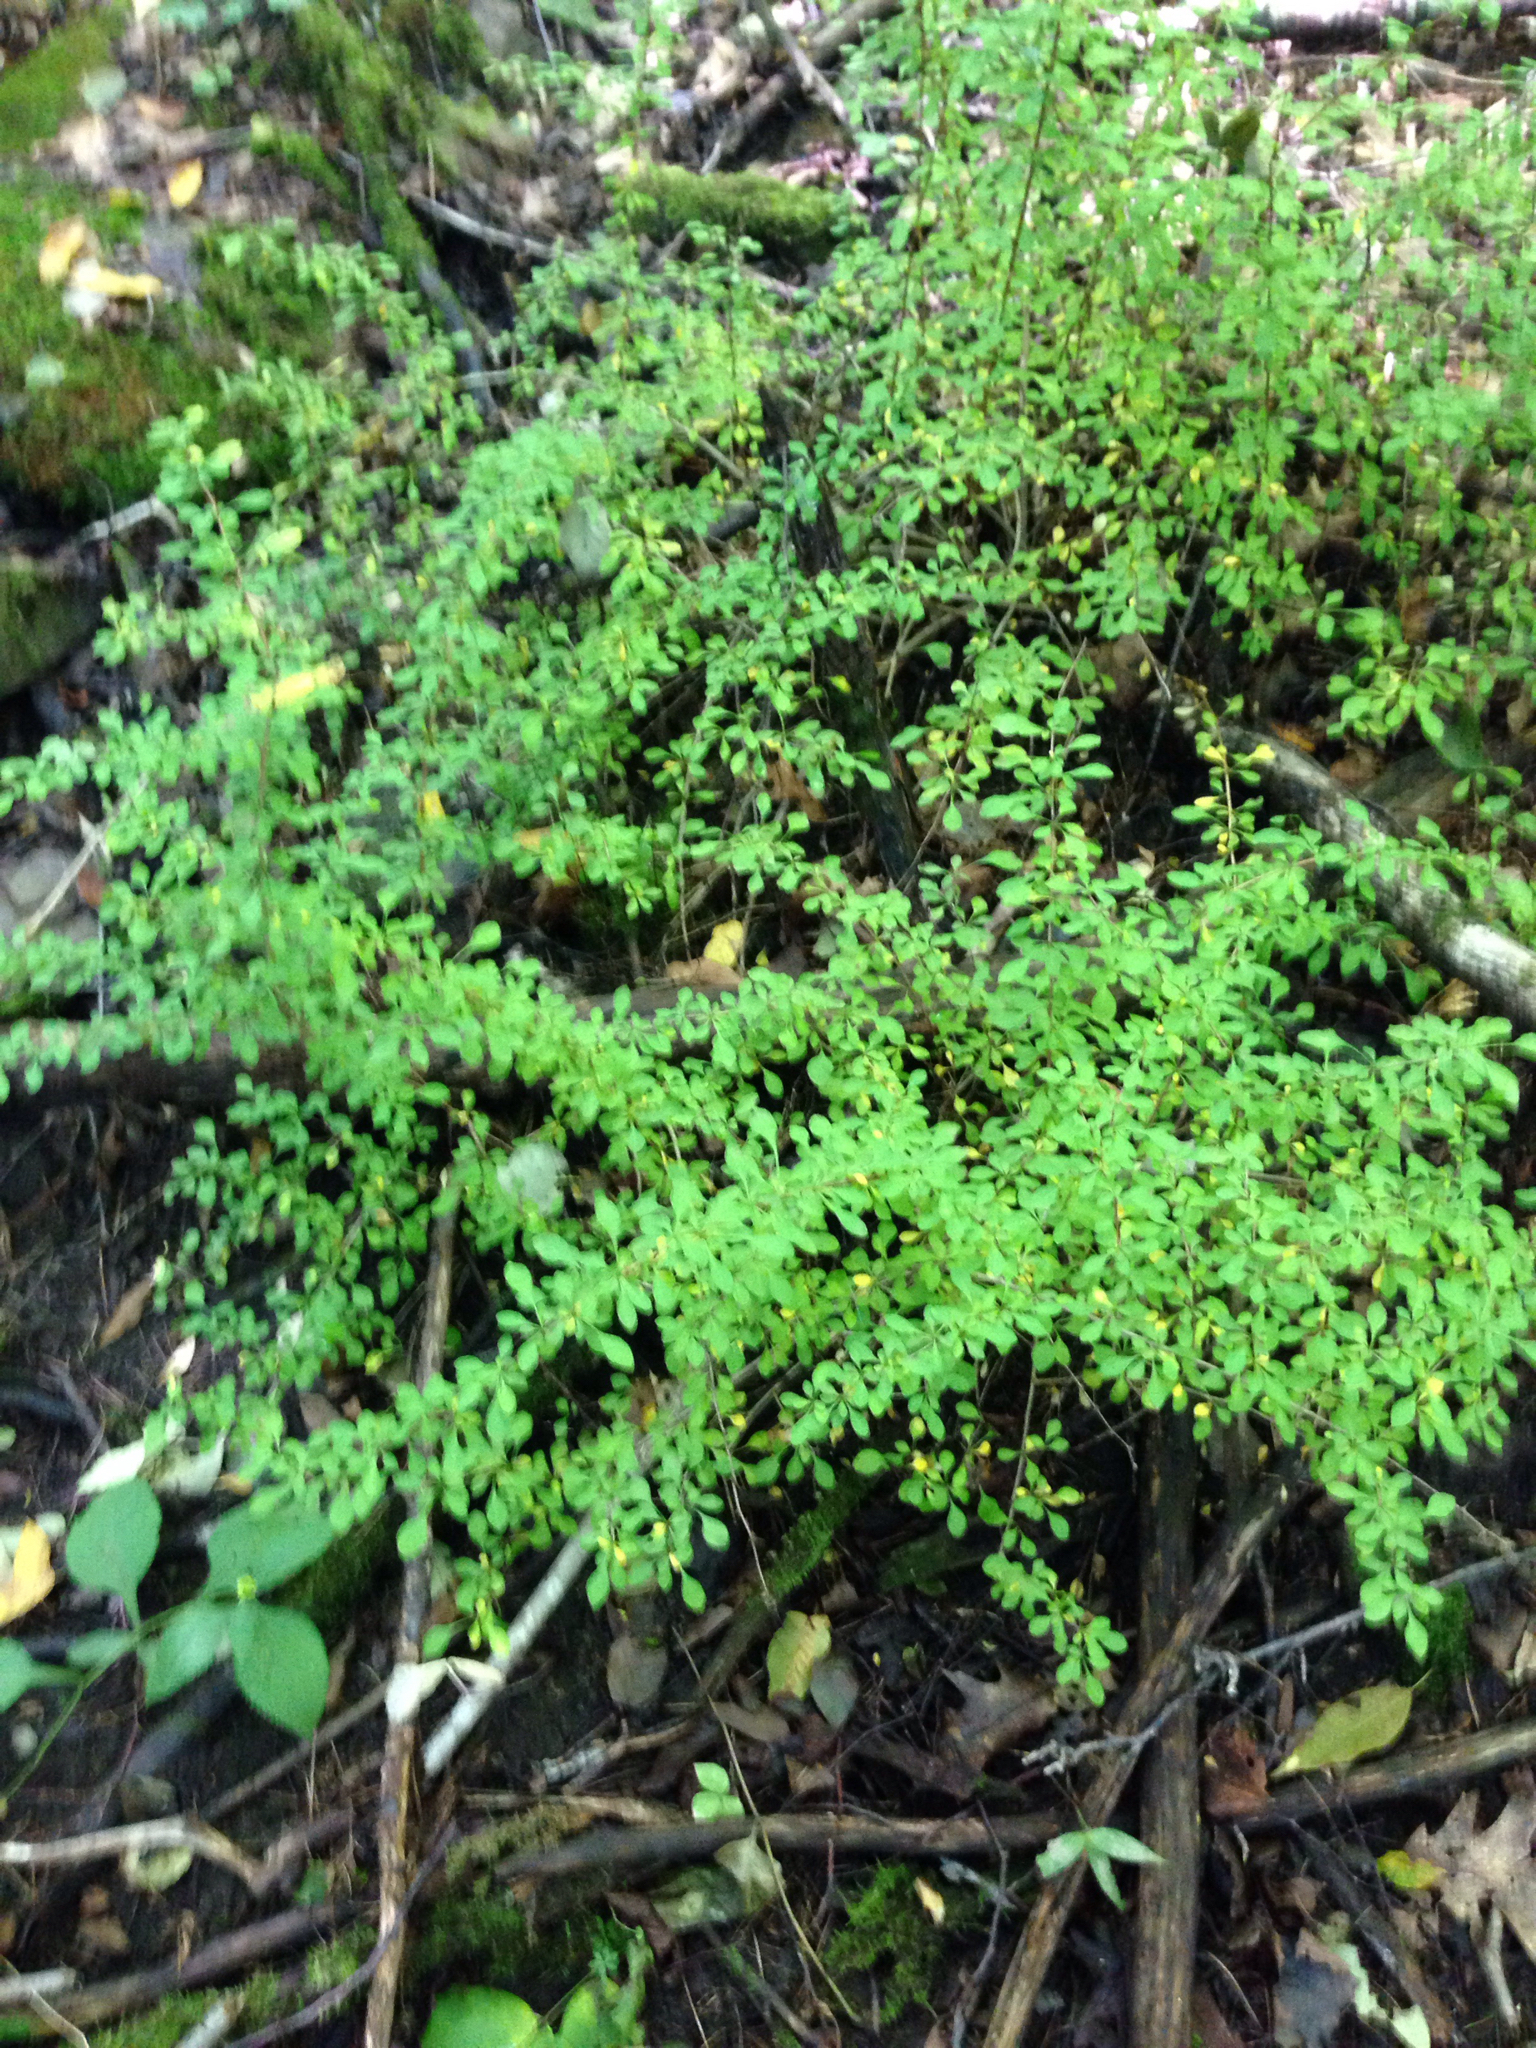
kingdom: Plantae
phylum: Tracheophyta
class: Magnoliopsida
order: Ranunculales
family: Berberidaceae
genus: Berberis
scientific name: Berberis thunbergii
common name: Japanese barberry
